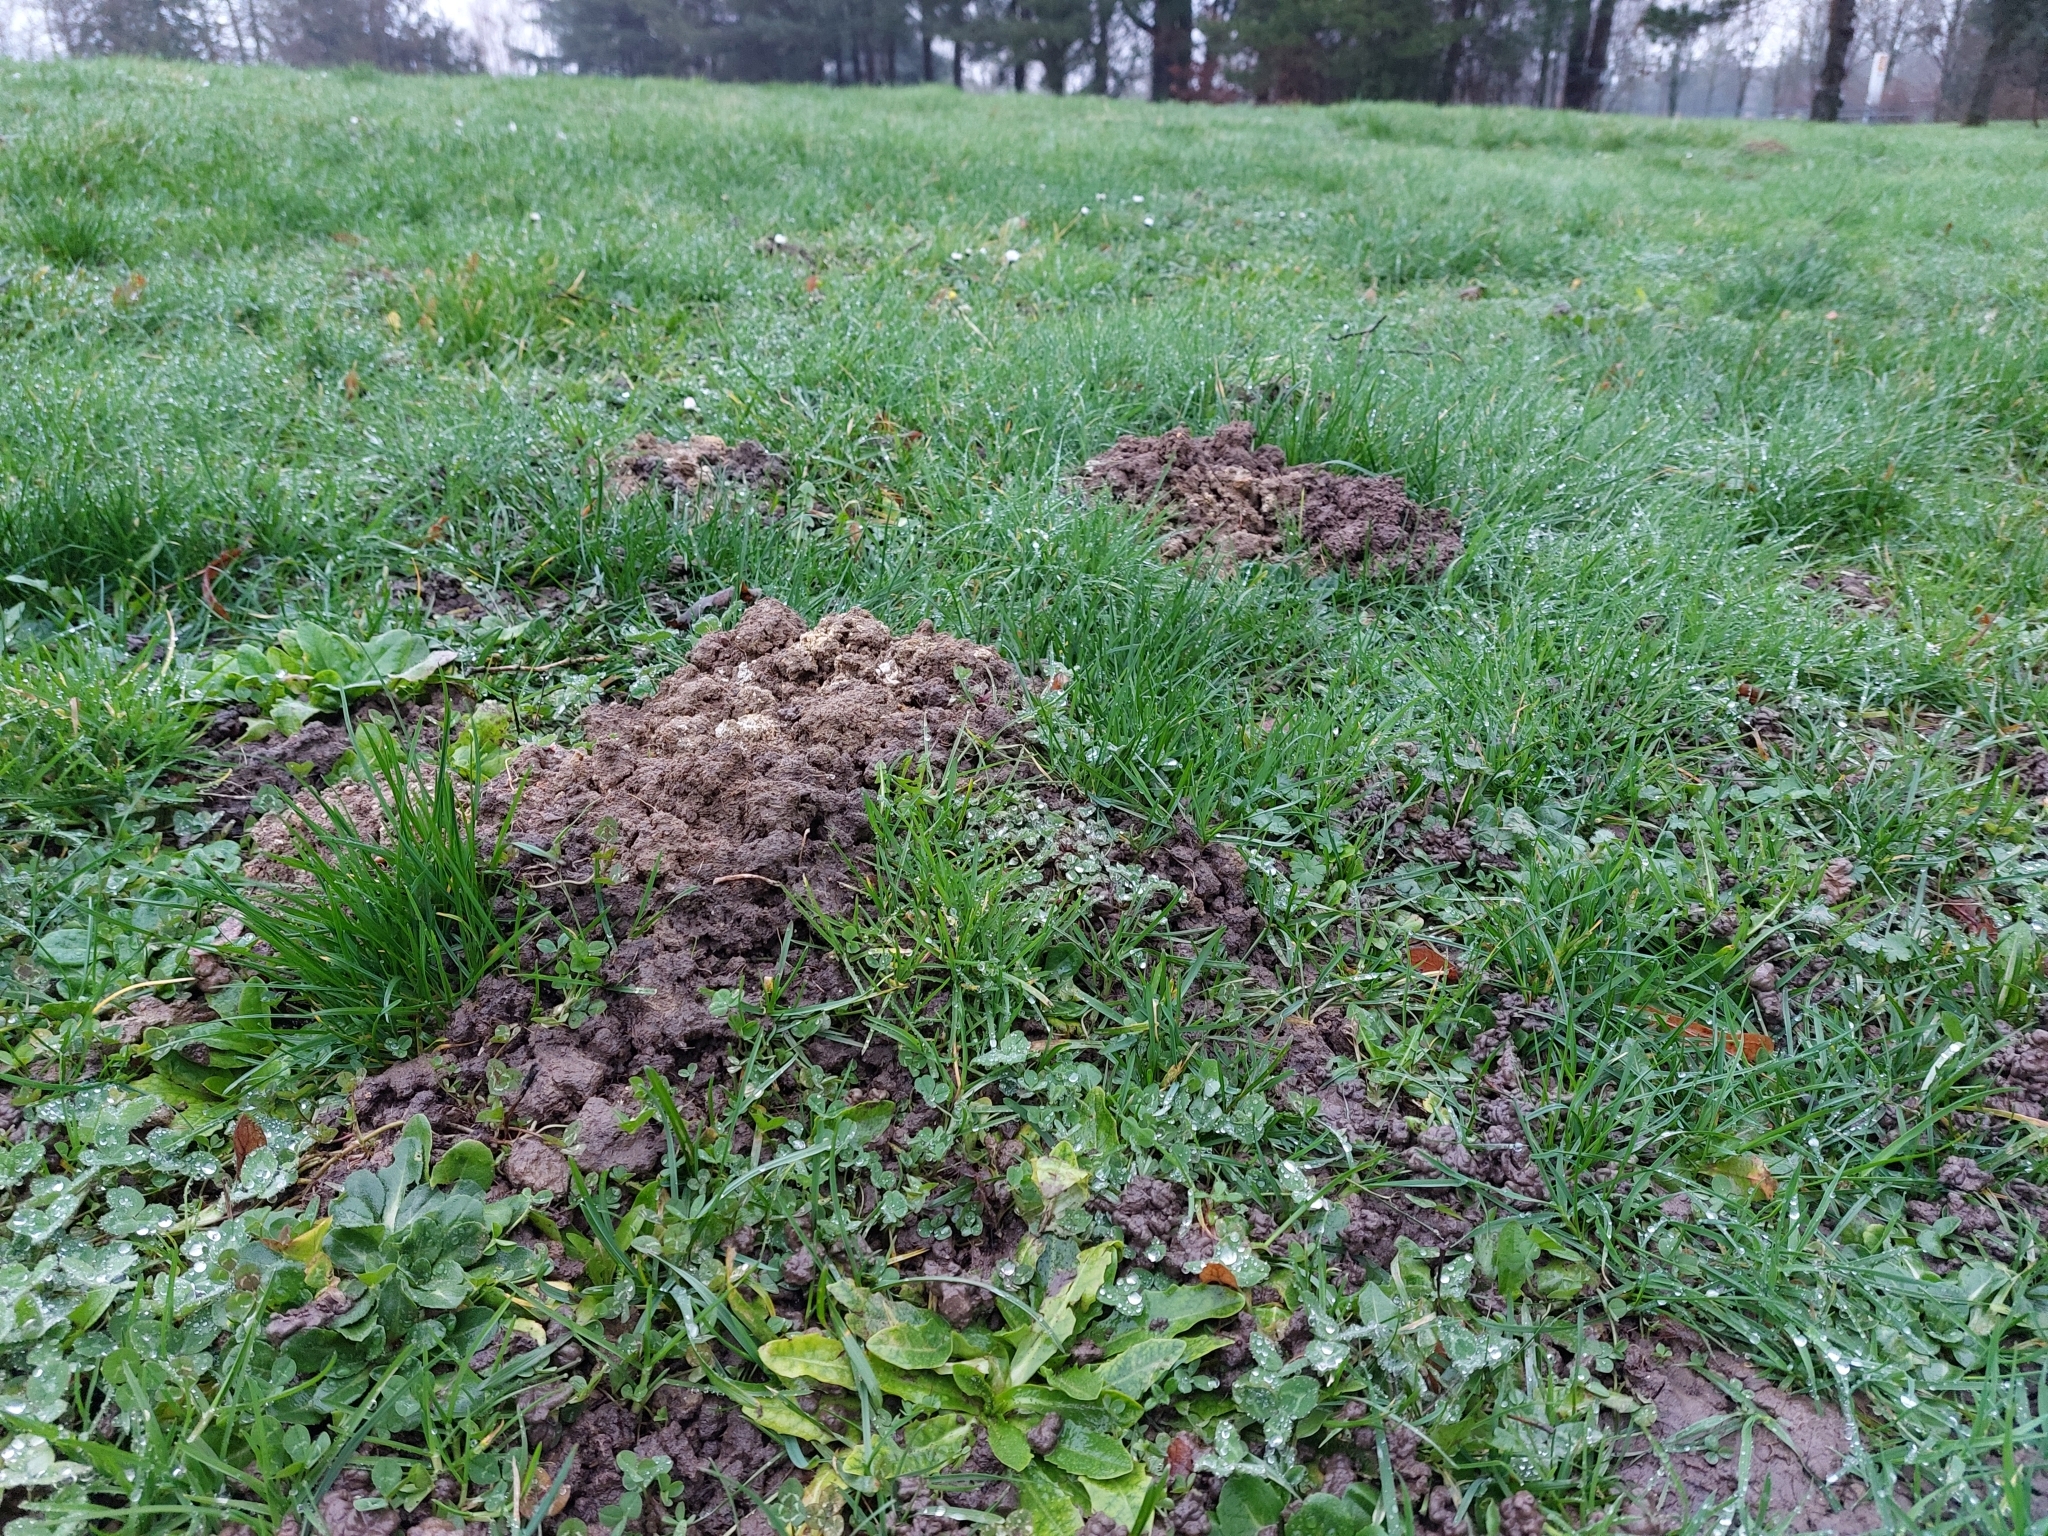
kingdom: Animalia
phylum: Chordata
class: Mammalia
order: Soricomorpha
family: Talpidae
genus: Talpa
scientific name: Talpa europaea
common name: European mole
